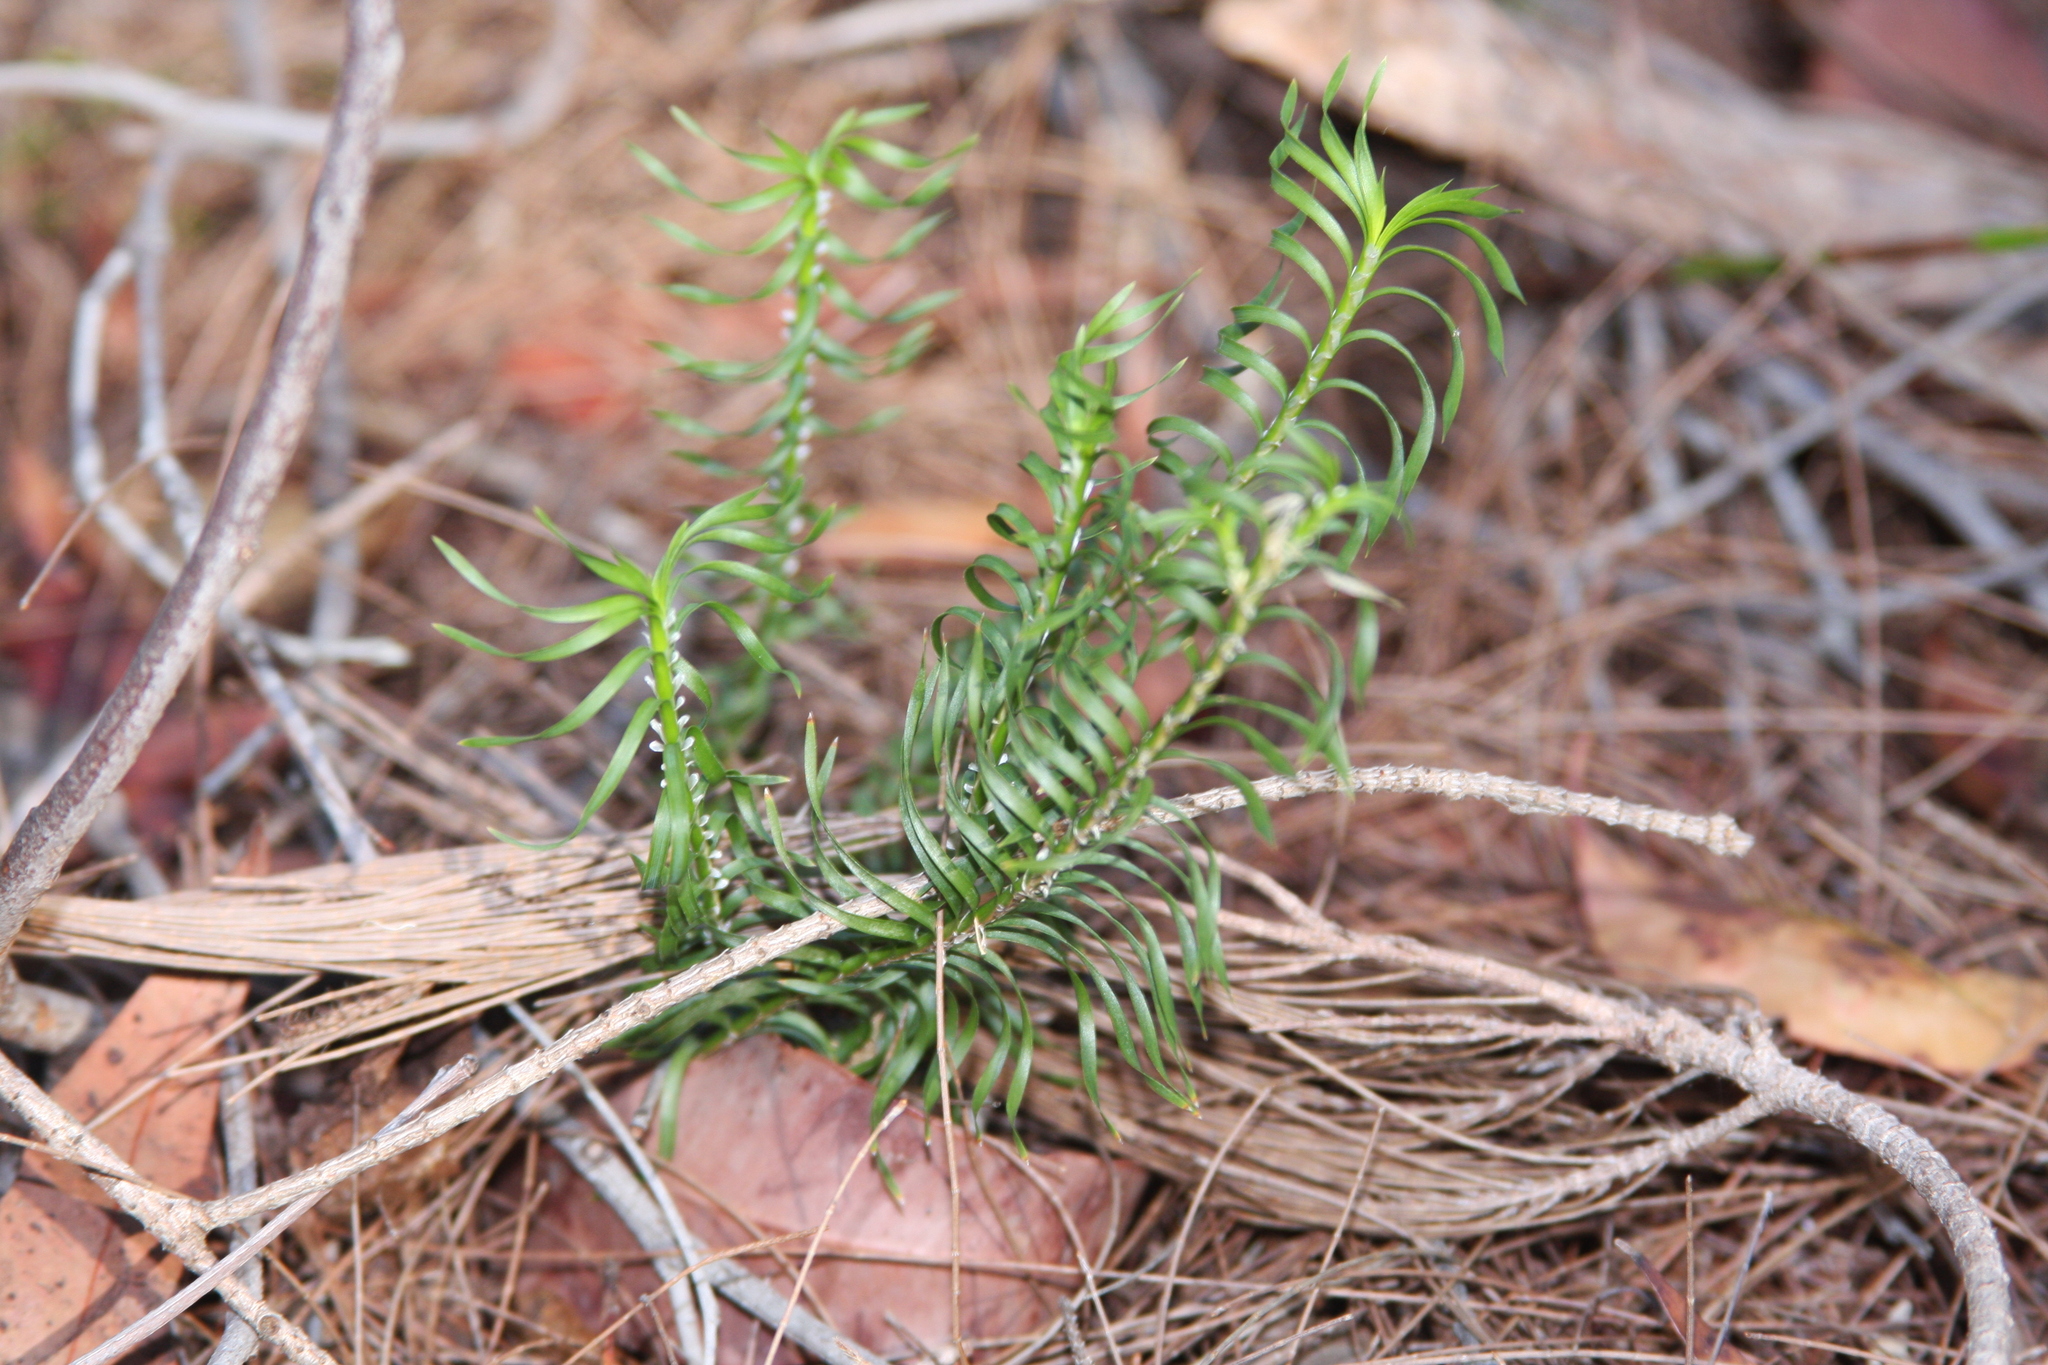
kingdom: Plantae
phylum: Tracheophyta
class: Liliopsida
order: Asparagales
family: Asparagaceae
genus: Lomandra
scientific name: Lomandra obliqua
